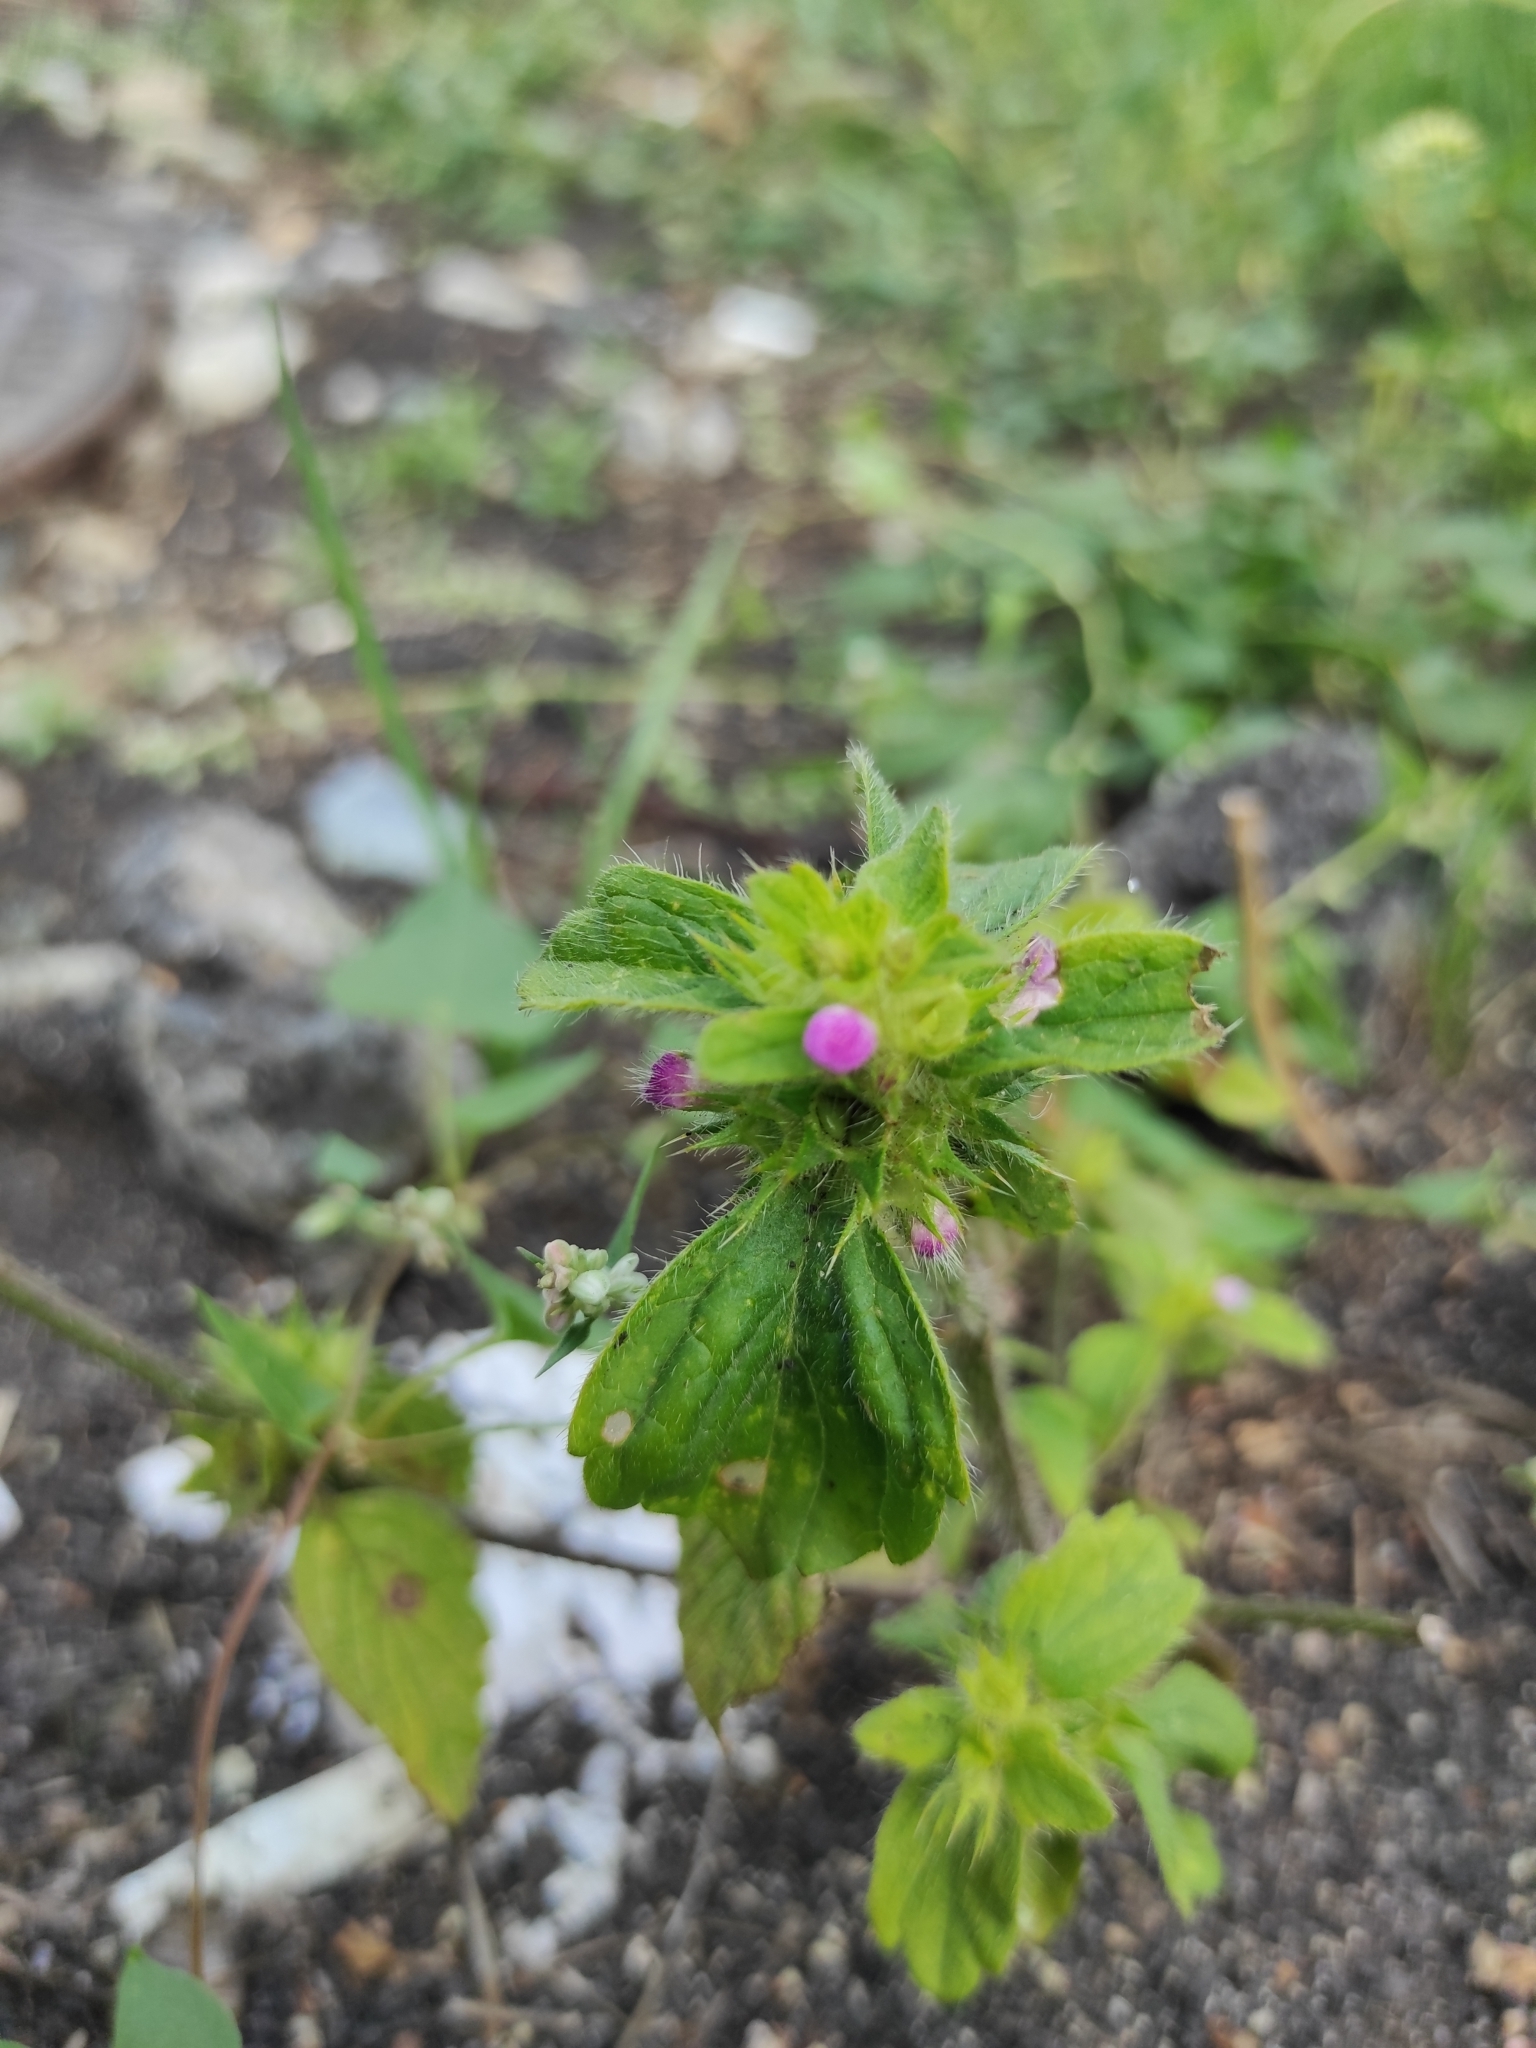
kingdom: Plantae
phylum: Tracheophyta
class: Magnoliopsida
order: Lamiales
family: Lamiaceae
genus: Galeopsis
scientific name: Galeopsis bifida
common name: Bifid hemp-nettle
